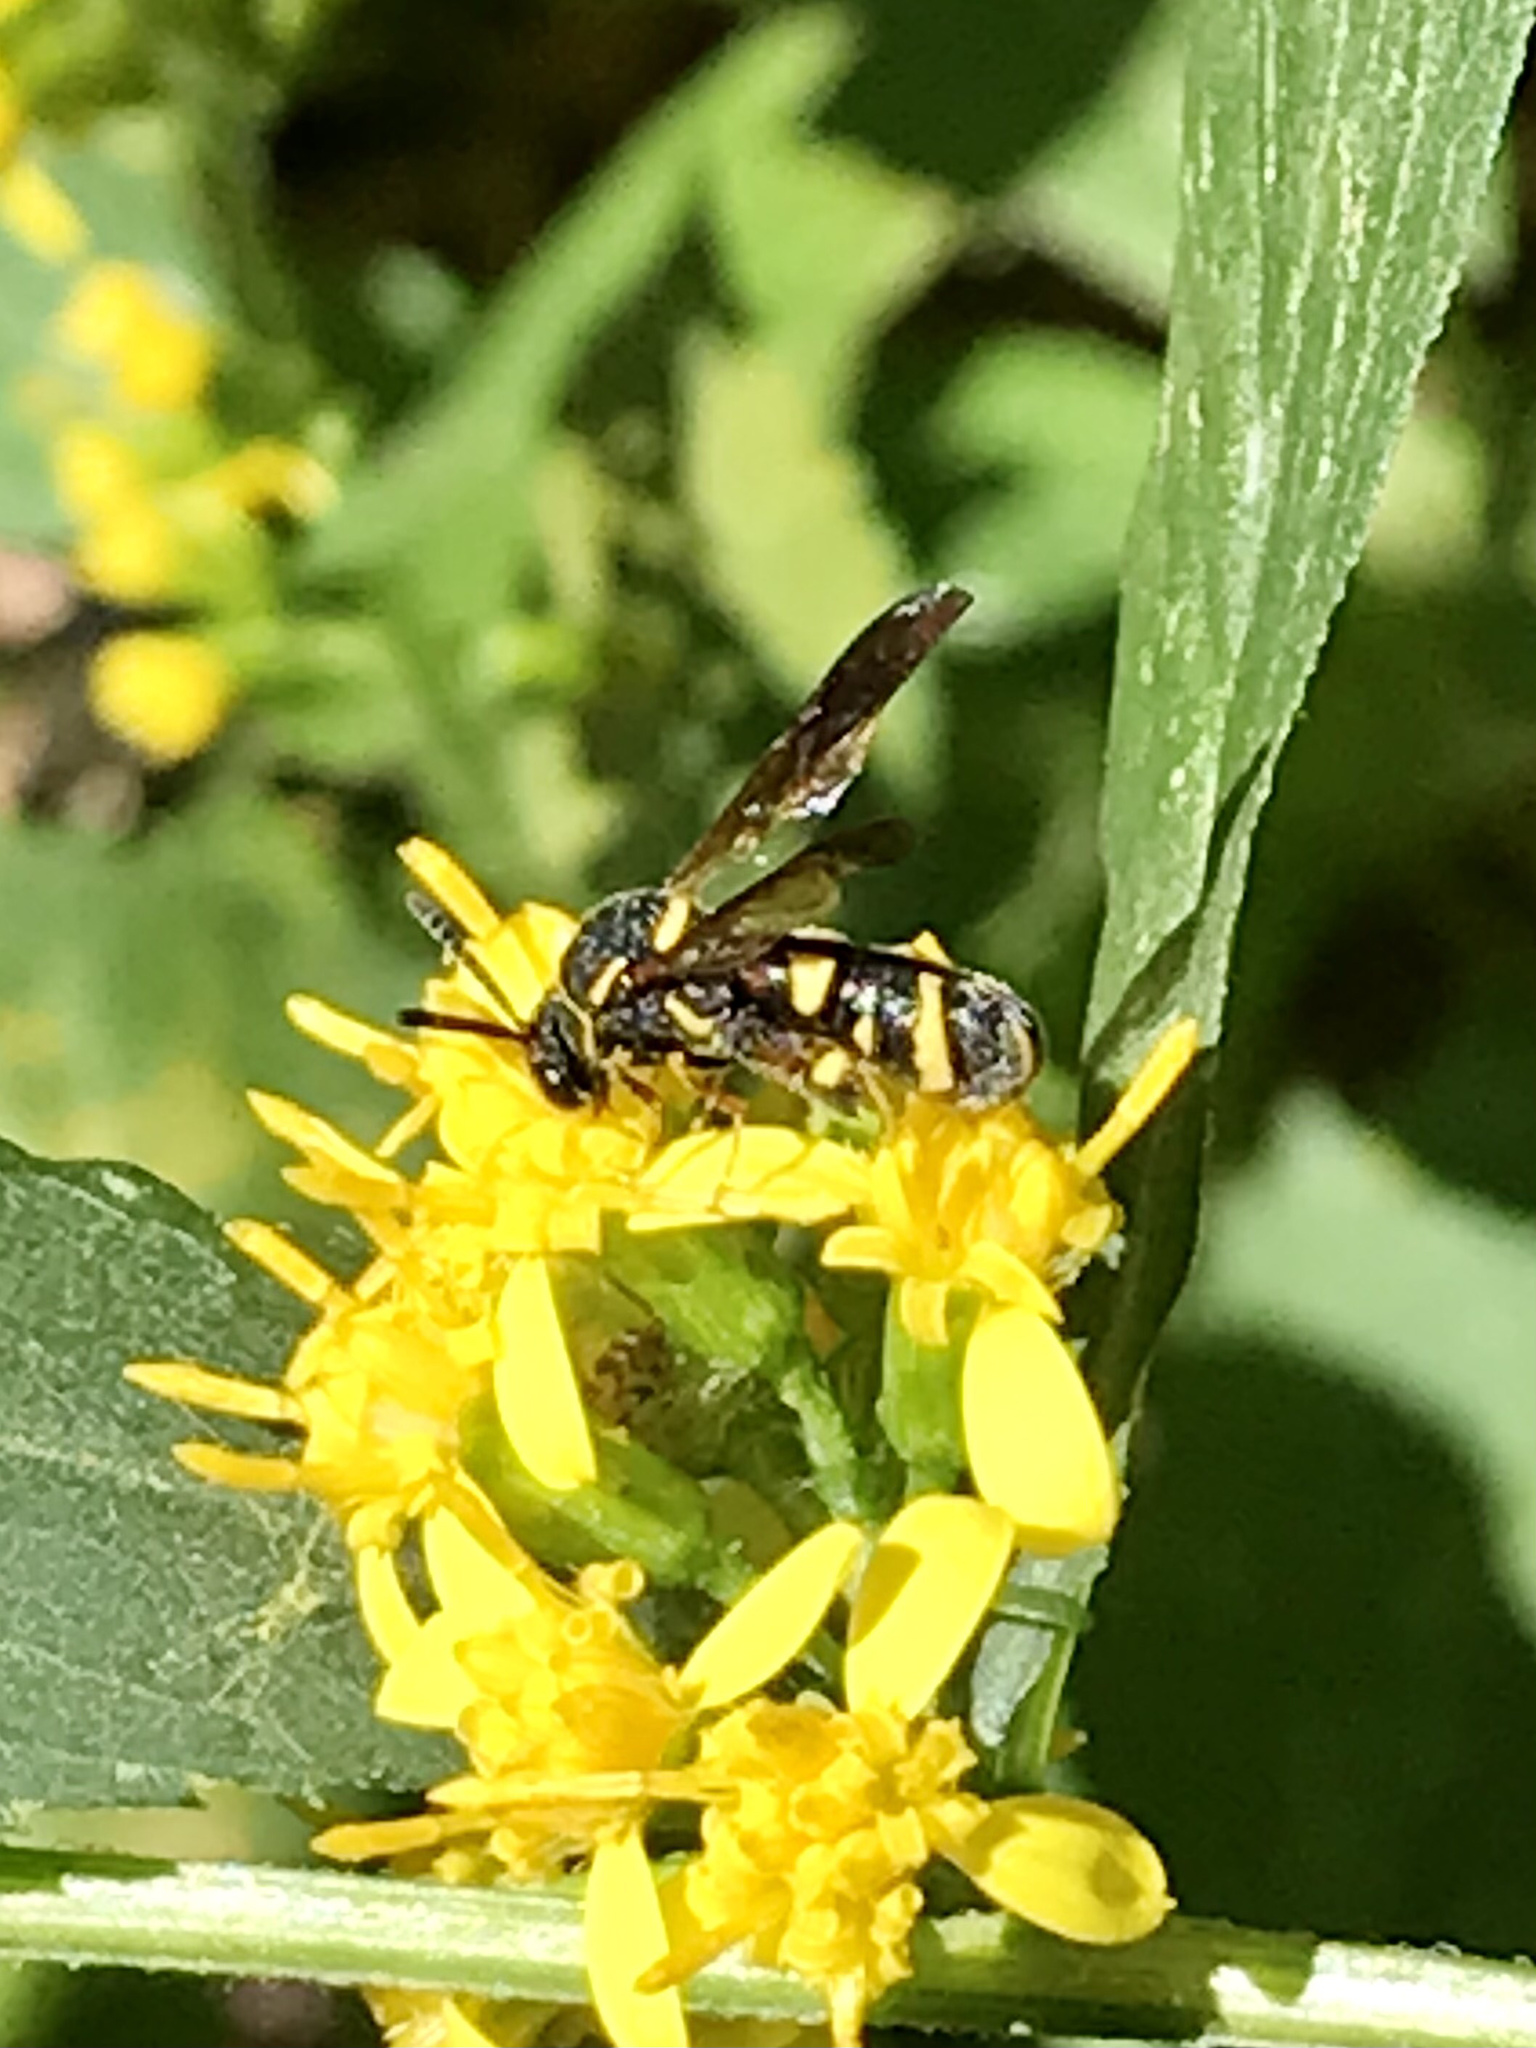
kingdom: Animalia
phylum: Arthropoda
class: Insecta
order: Hymenoptera
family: Leucospidae
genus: Leucospis
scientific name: Leucospis affinis
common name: Wasp
